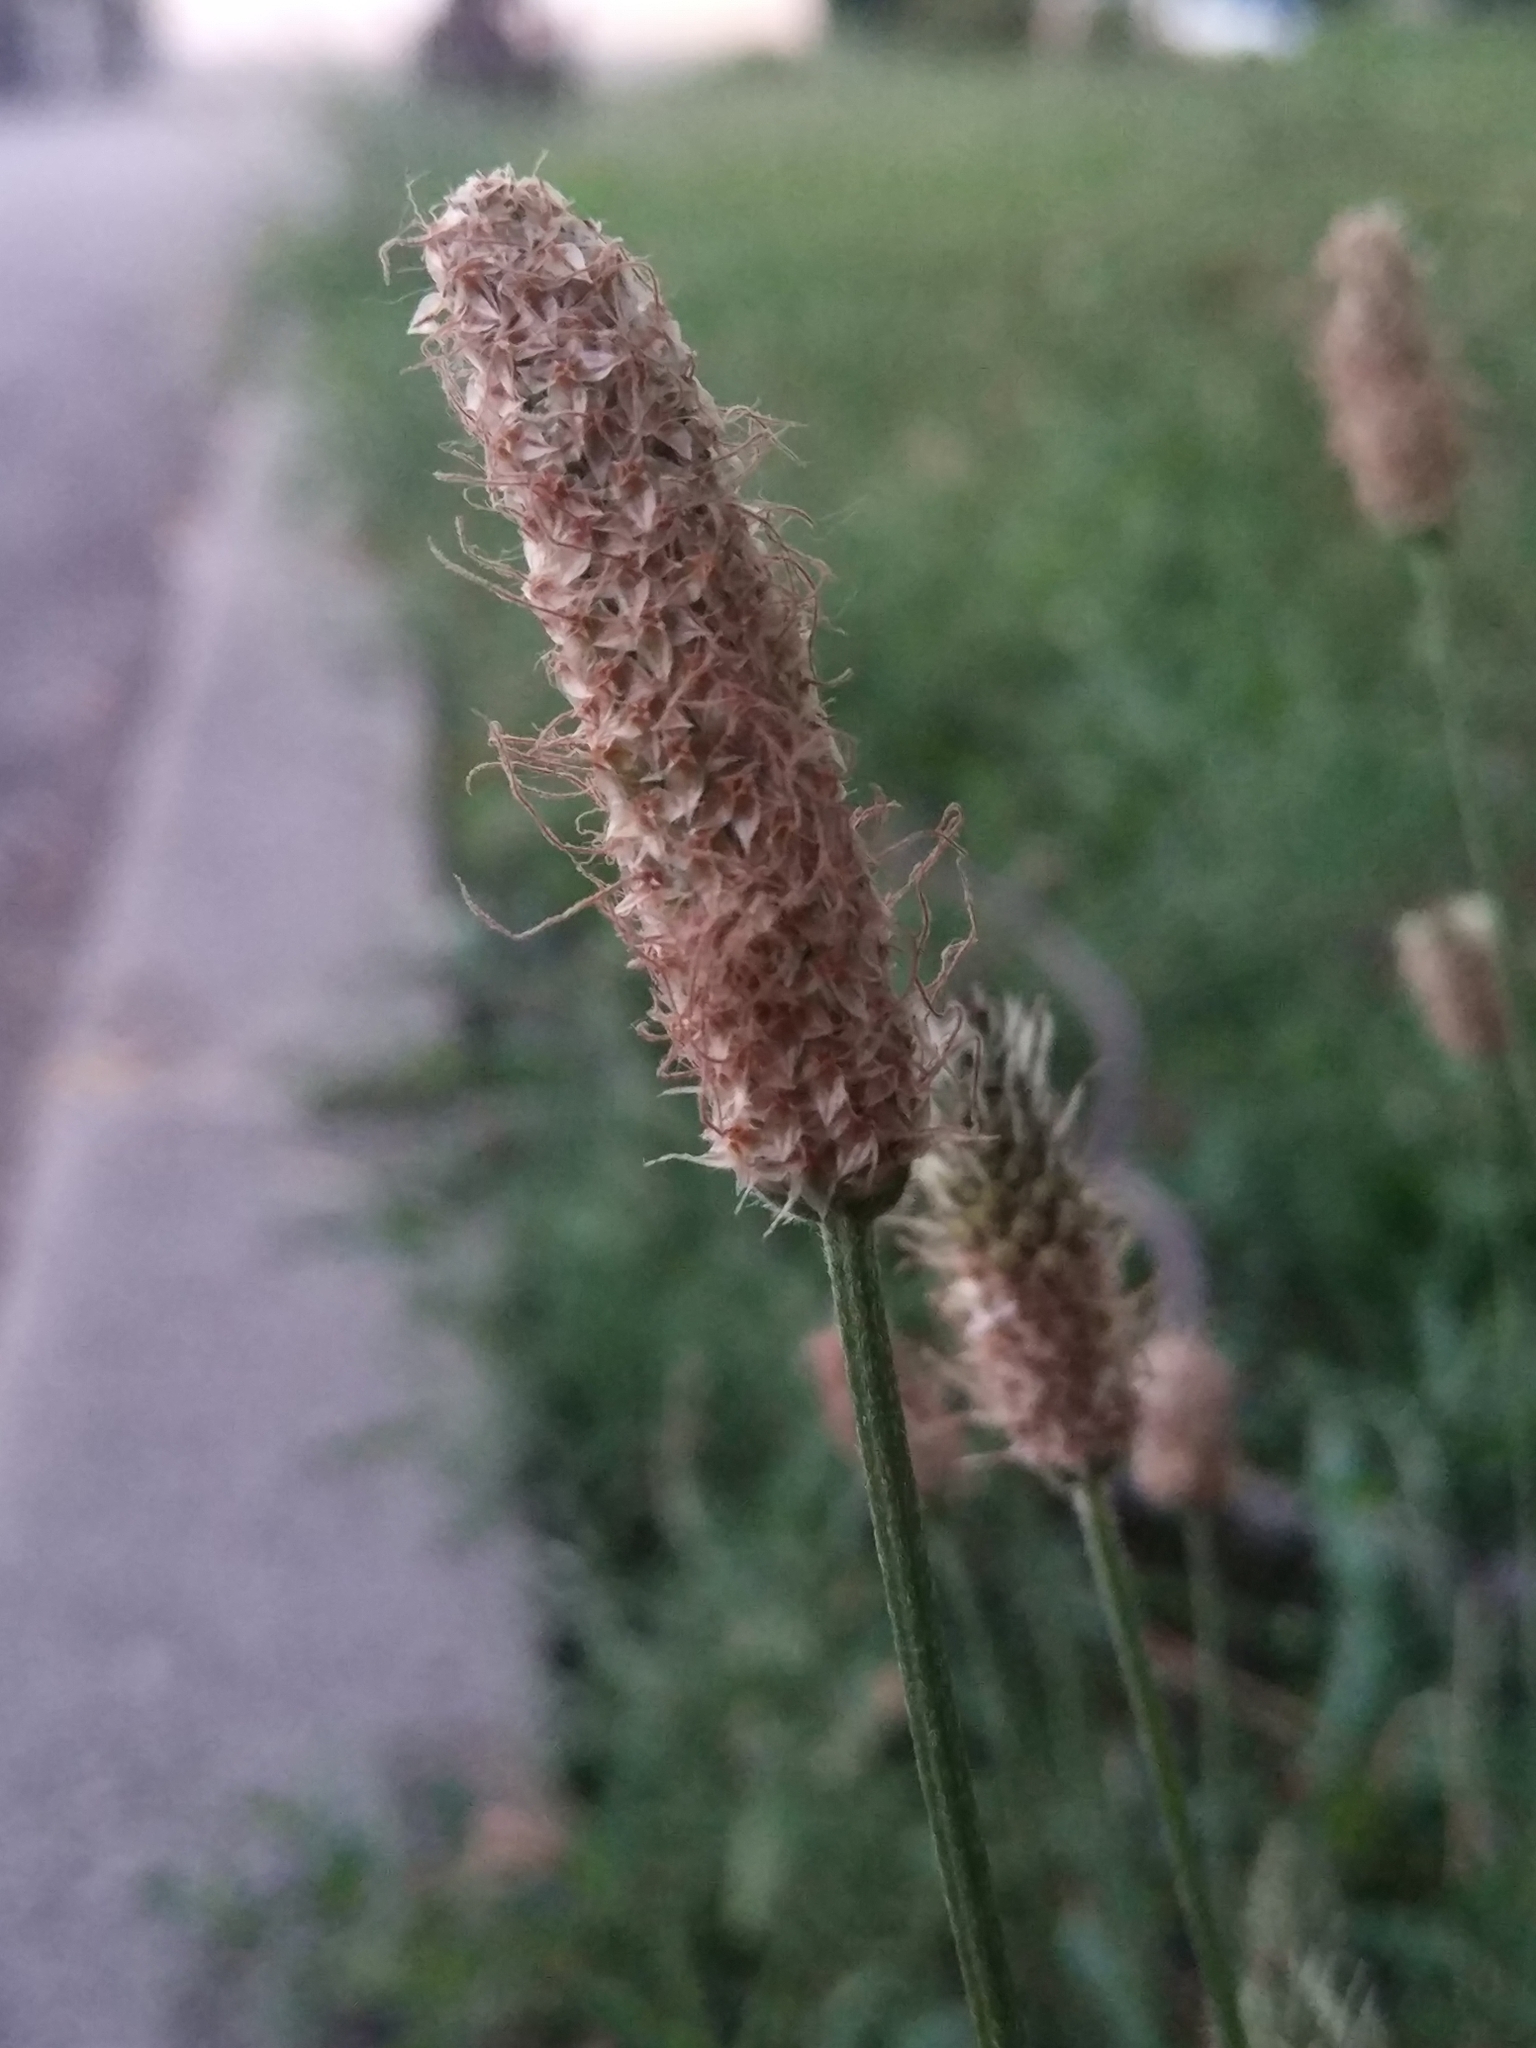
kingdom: Plantae
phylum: Tracheophyta
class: Magnoliopsida
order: Lamiales
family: Plantaginaceae
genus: Plantago
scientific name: Plantago lanceolata
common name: Ribwort plantain
